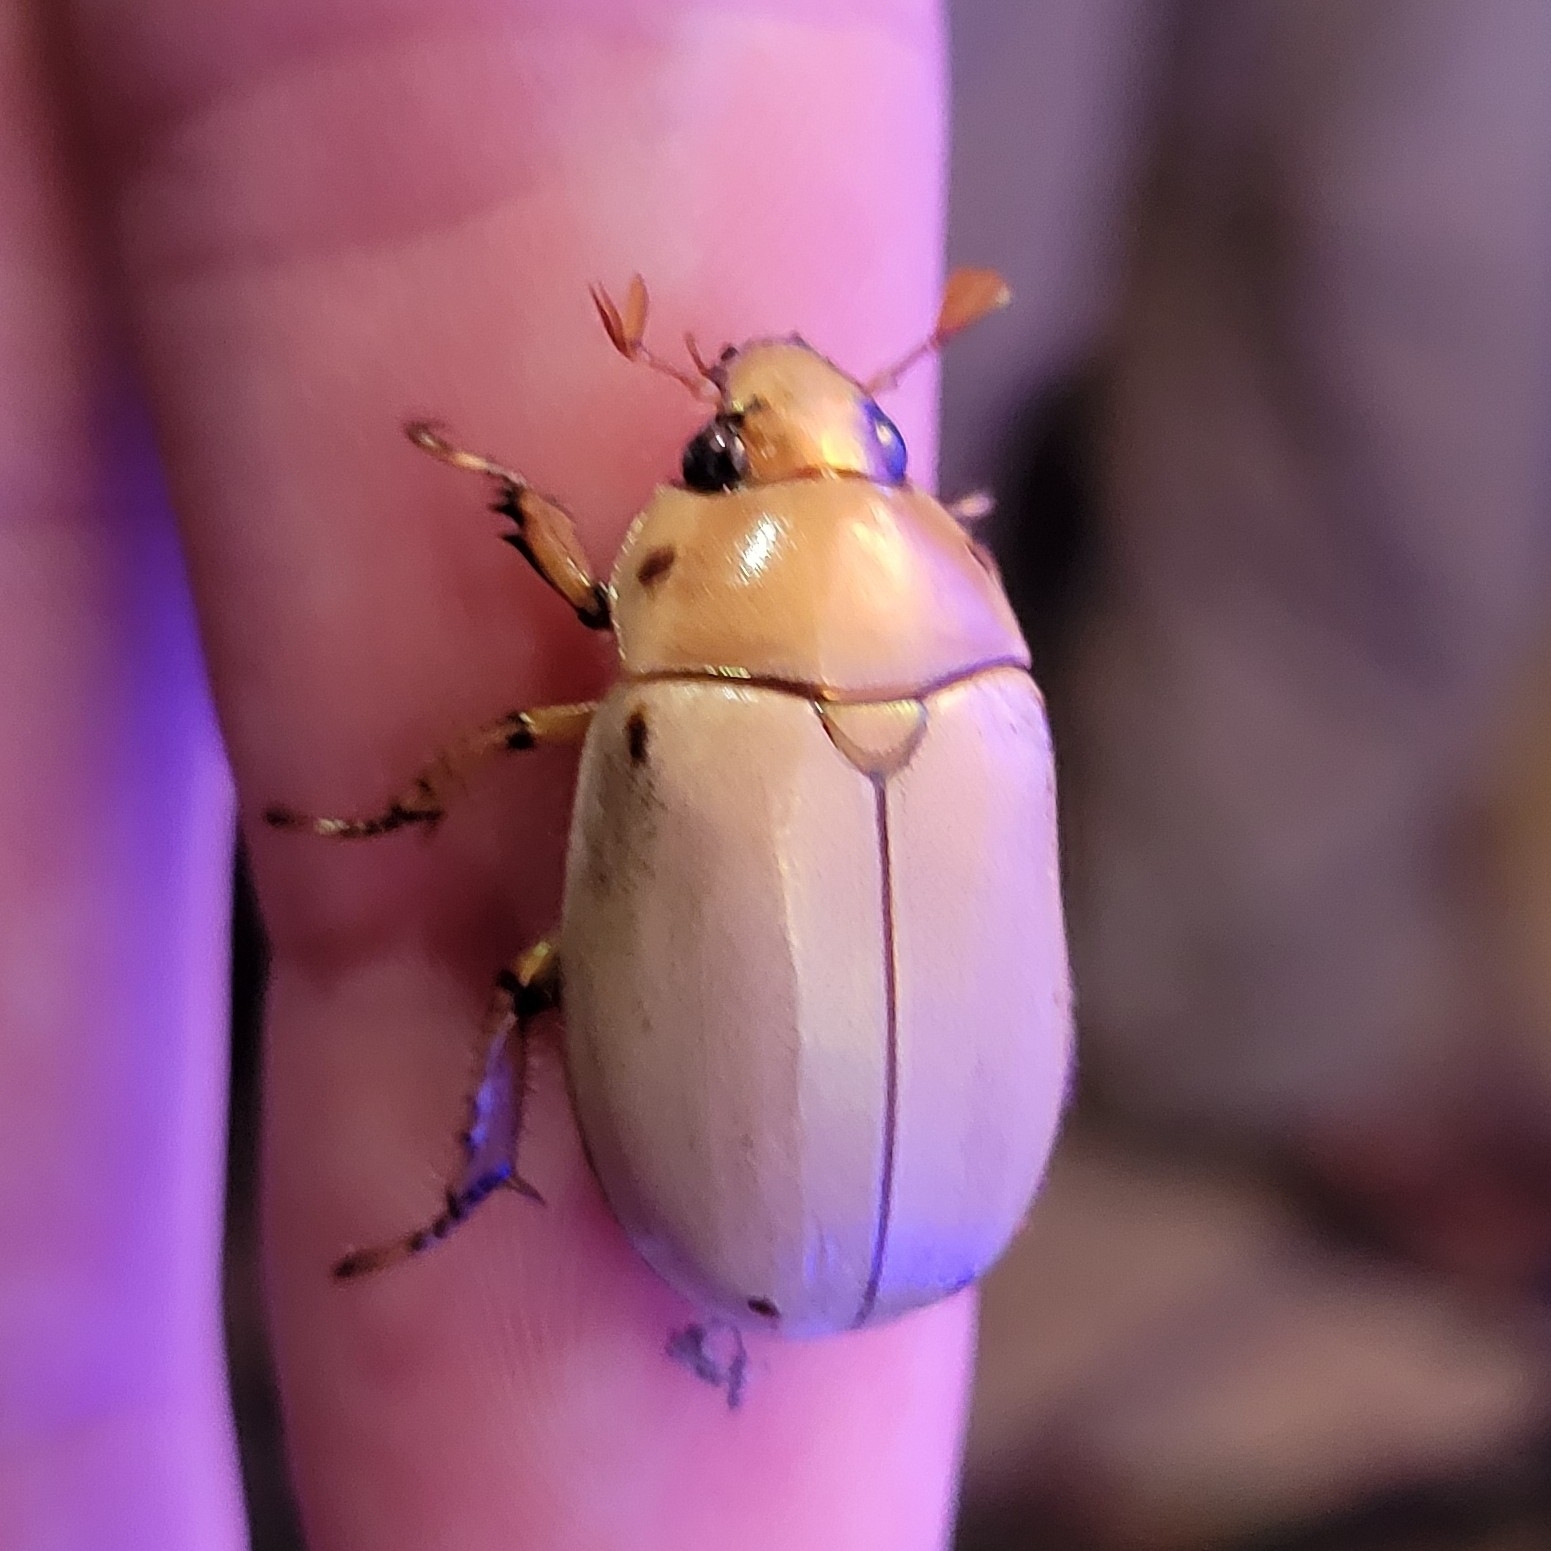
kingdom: Animalia
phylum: Arthropoda
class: Insecta
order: Coleoptera
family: Scarabaeidae
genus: Pelidnota
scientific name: Pelidnota punctata
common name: Grapevine beetle
